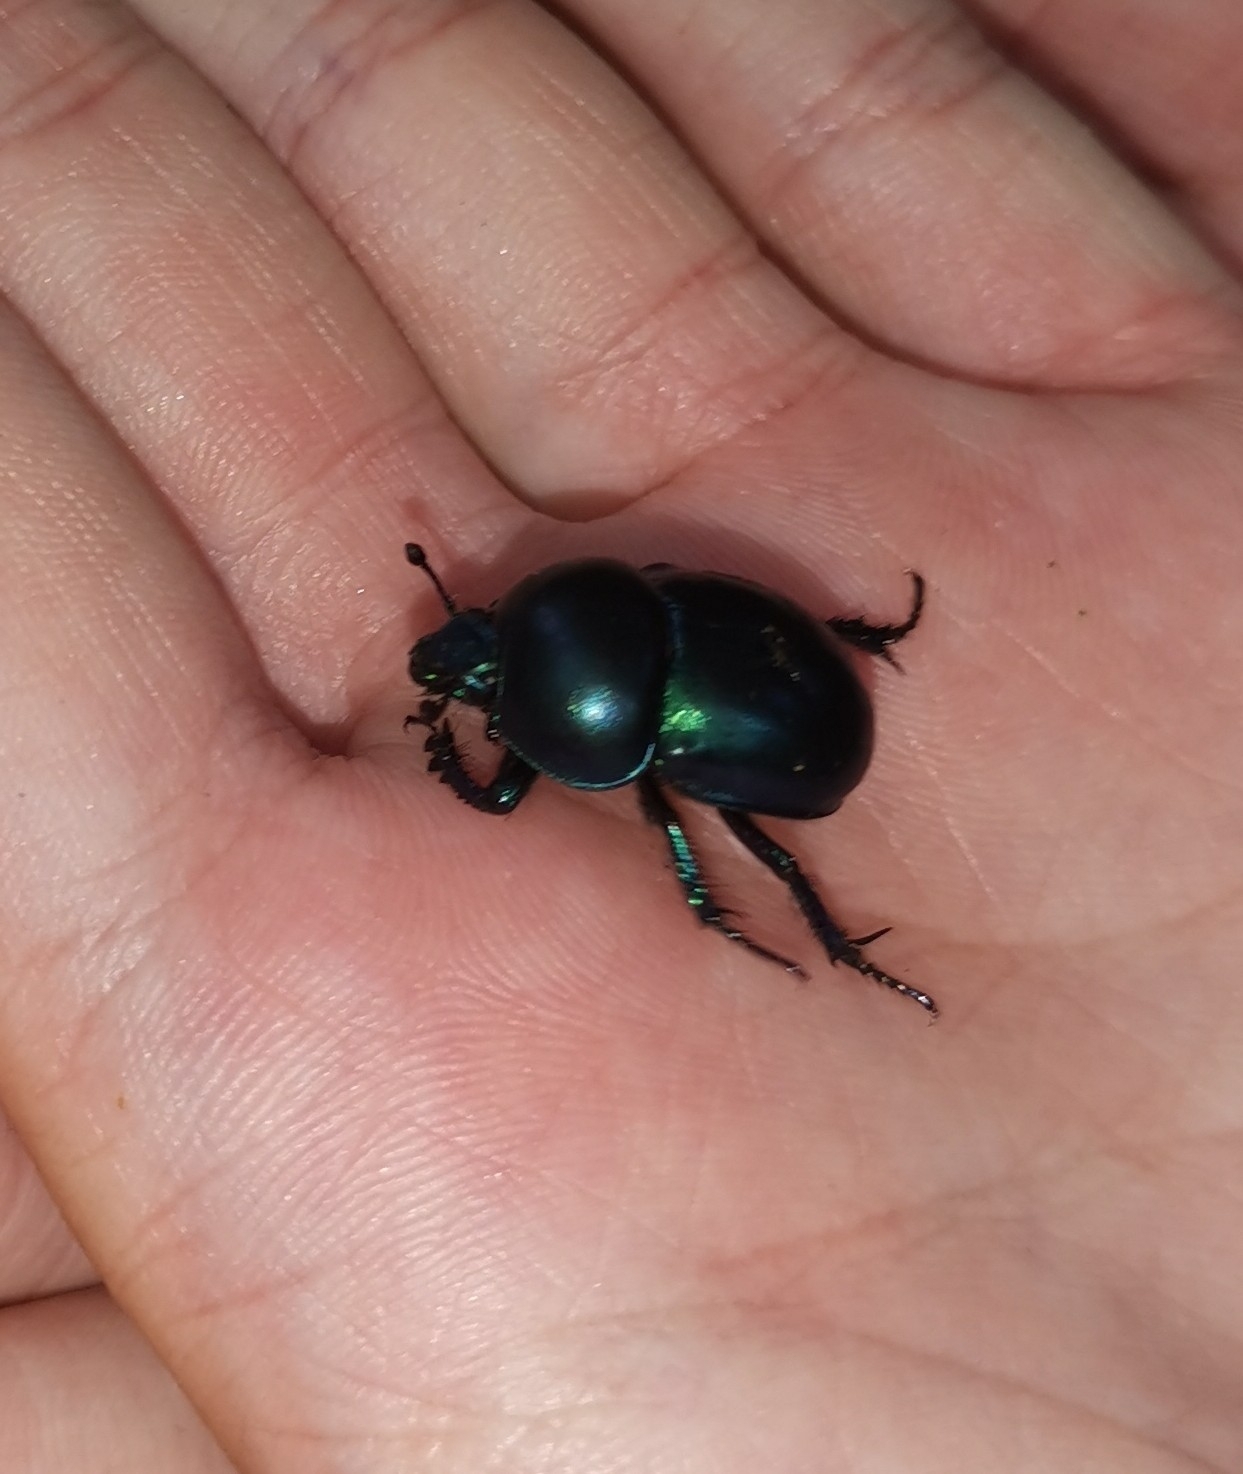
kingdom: Animalia
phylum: Arthropoda
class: Insecta
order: Coleoptera
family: Geotrupidae
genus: Trypocopris
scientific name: Trypocopris vernalis
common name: Spring dumbledor
